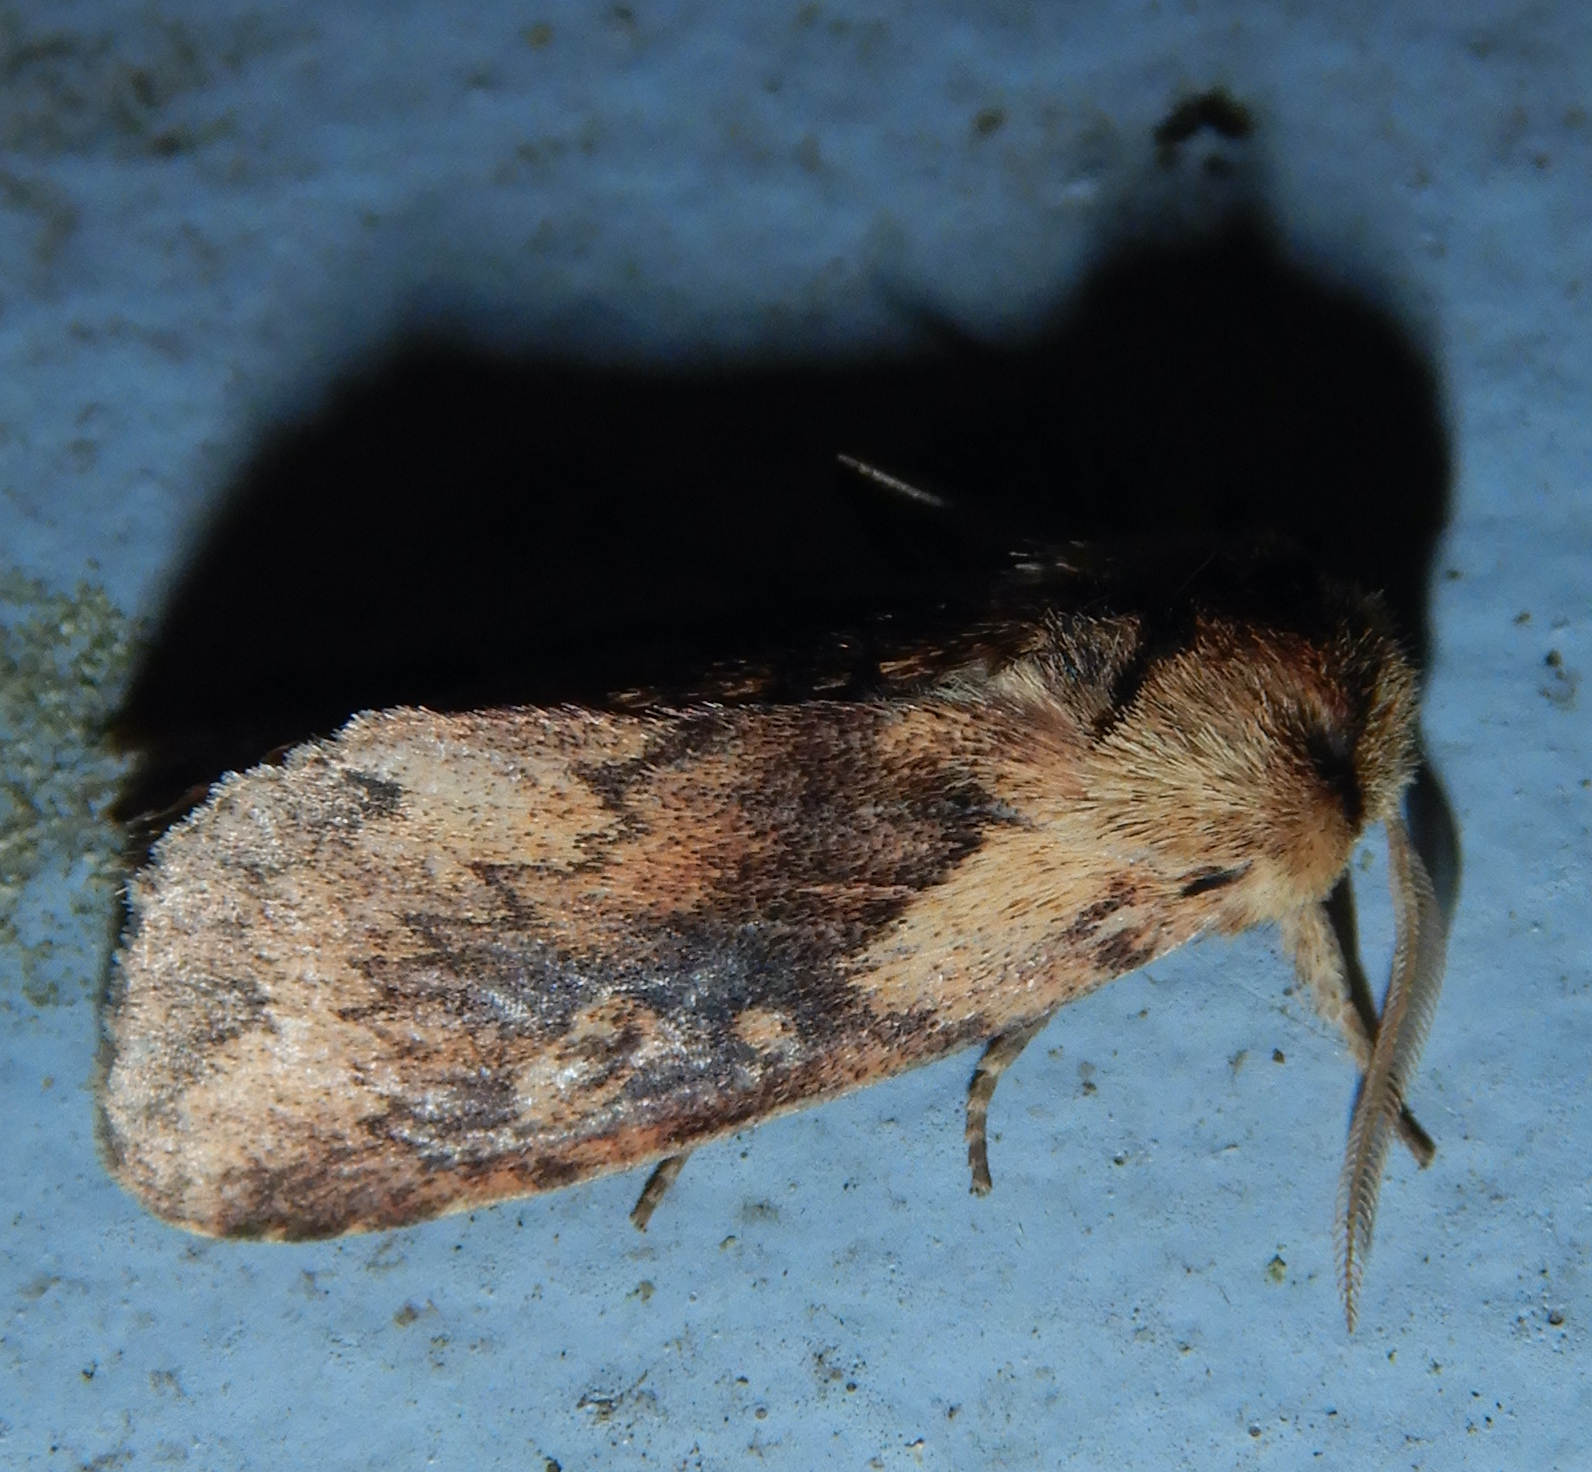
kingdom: Animalia
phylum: Arthropoda
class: Insecta
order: Lepidoptera
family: Noctuidae
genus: Bellura
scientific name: Bellura vulnifica
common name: Black-tailed diver moth
